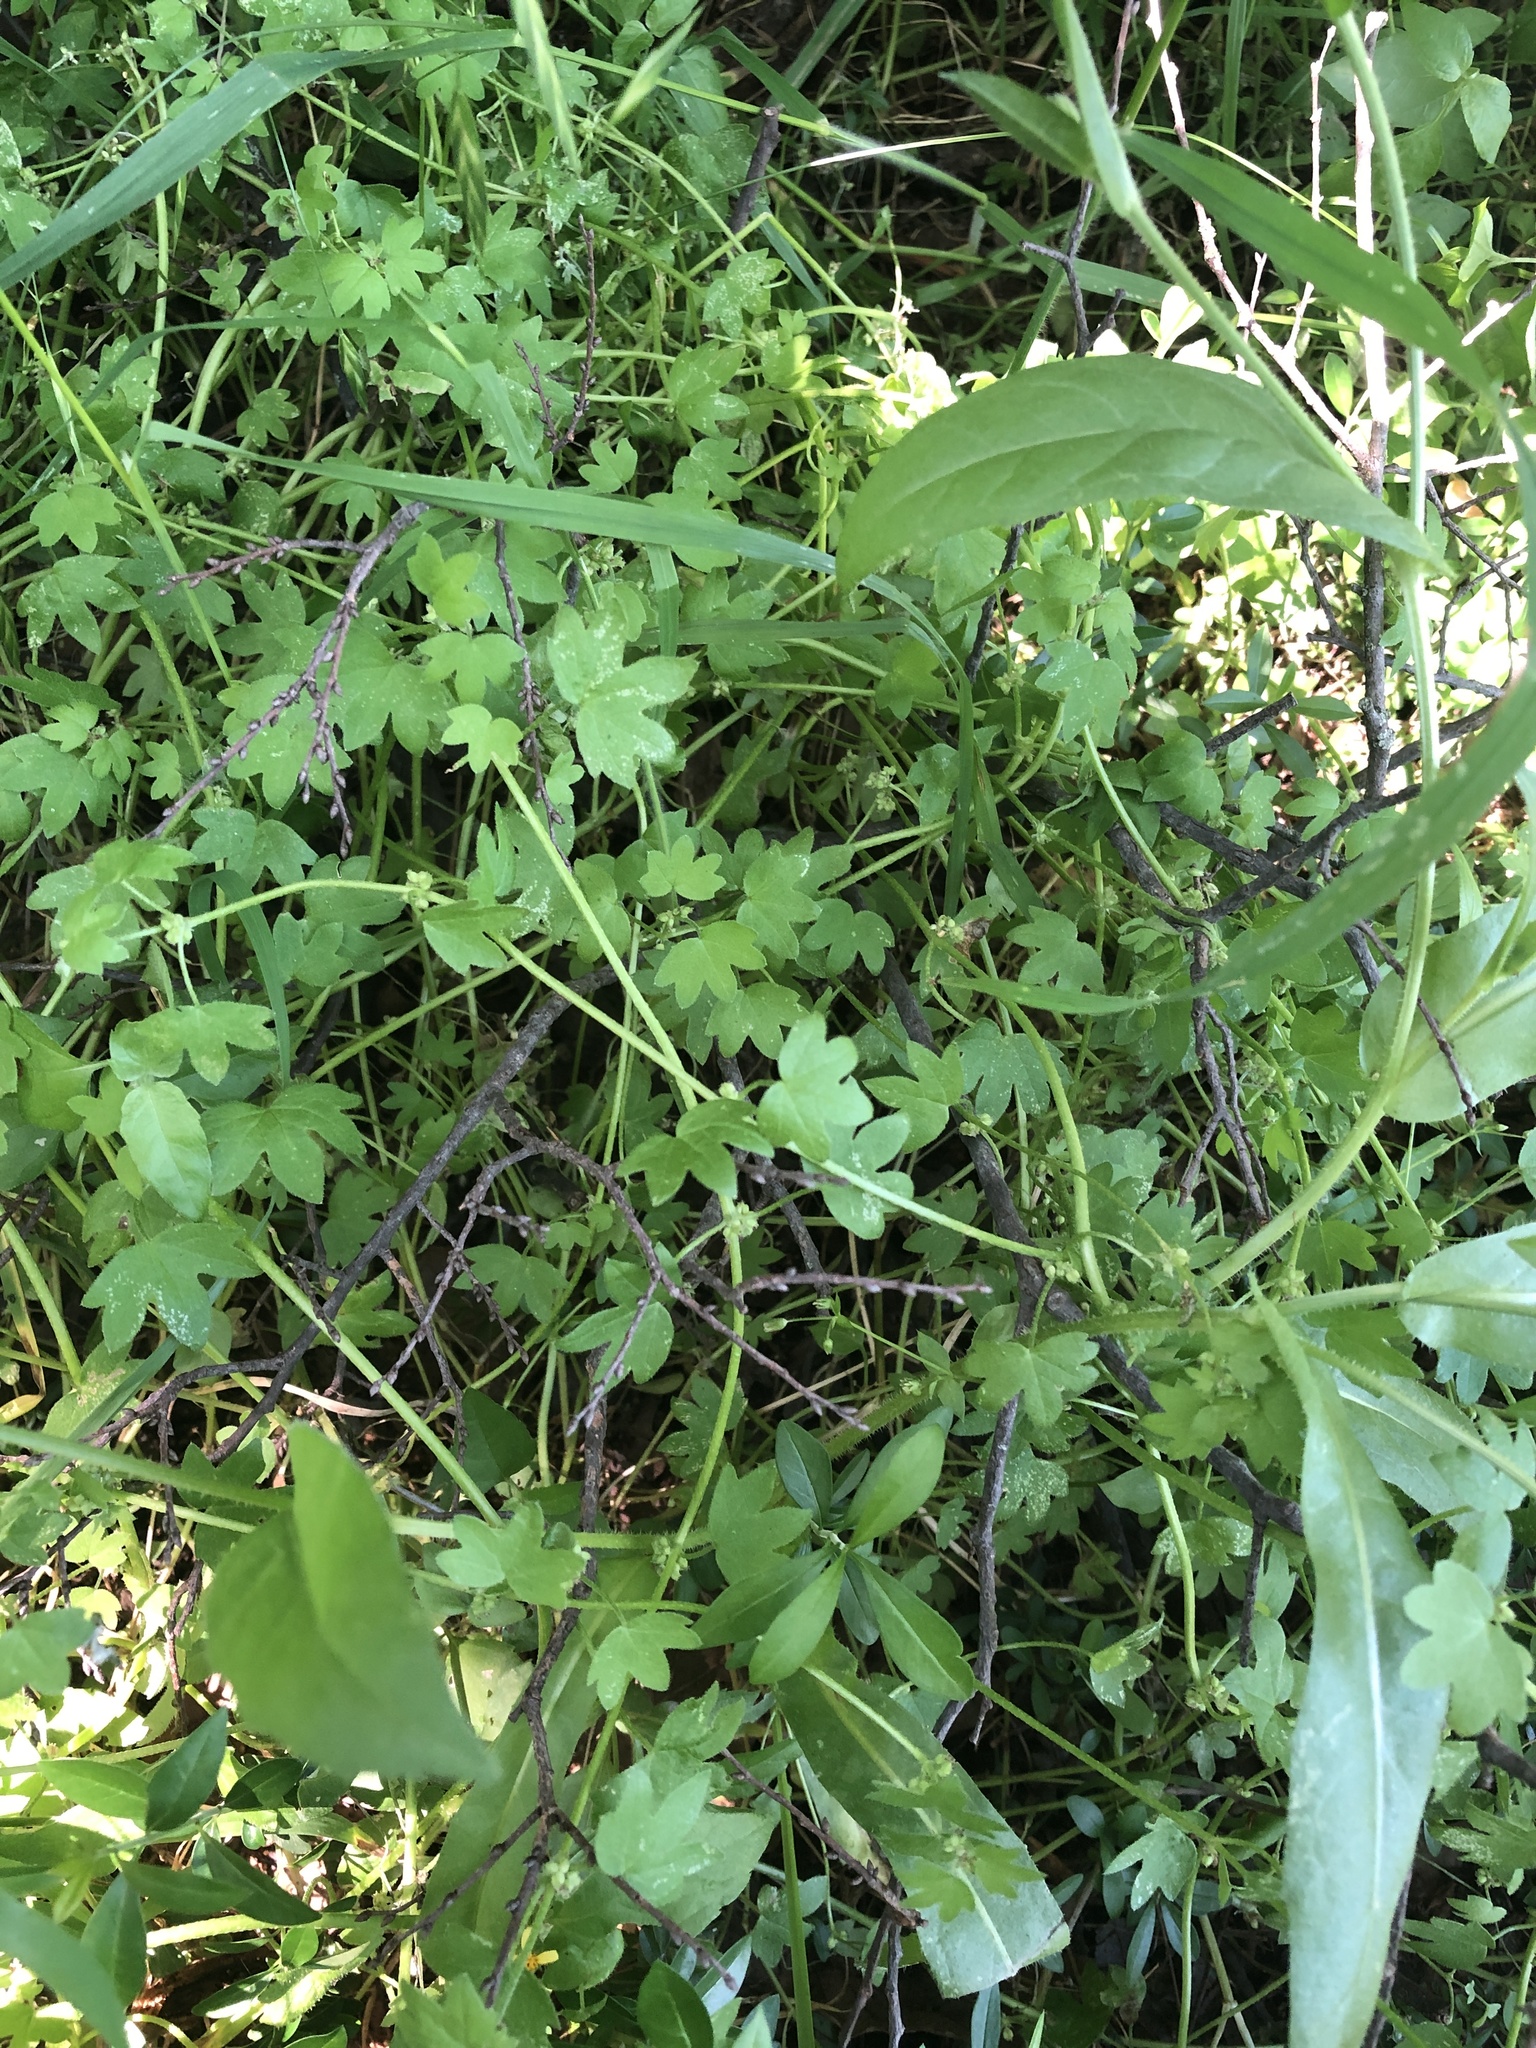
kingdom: Plantae
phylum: Tracheophyta
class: Magnoliopsida
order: Apiales
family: Apiaceae
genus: Bowlesia
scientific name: Bowlesia incana
